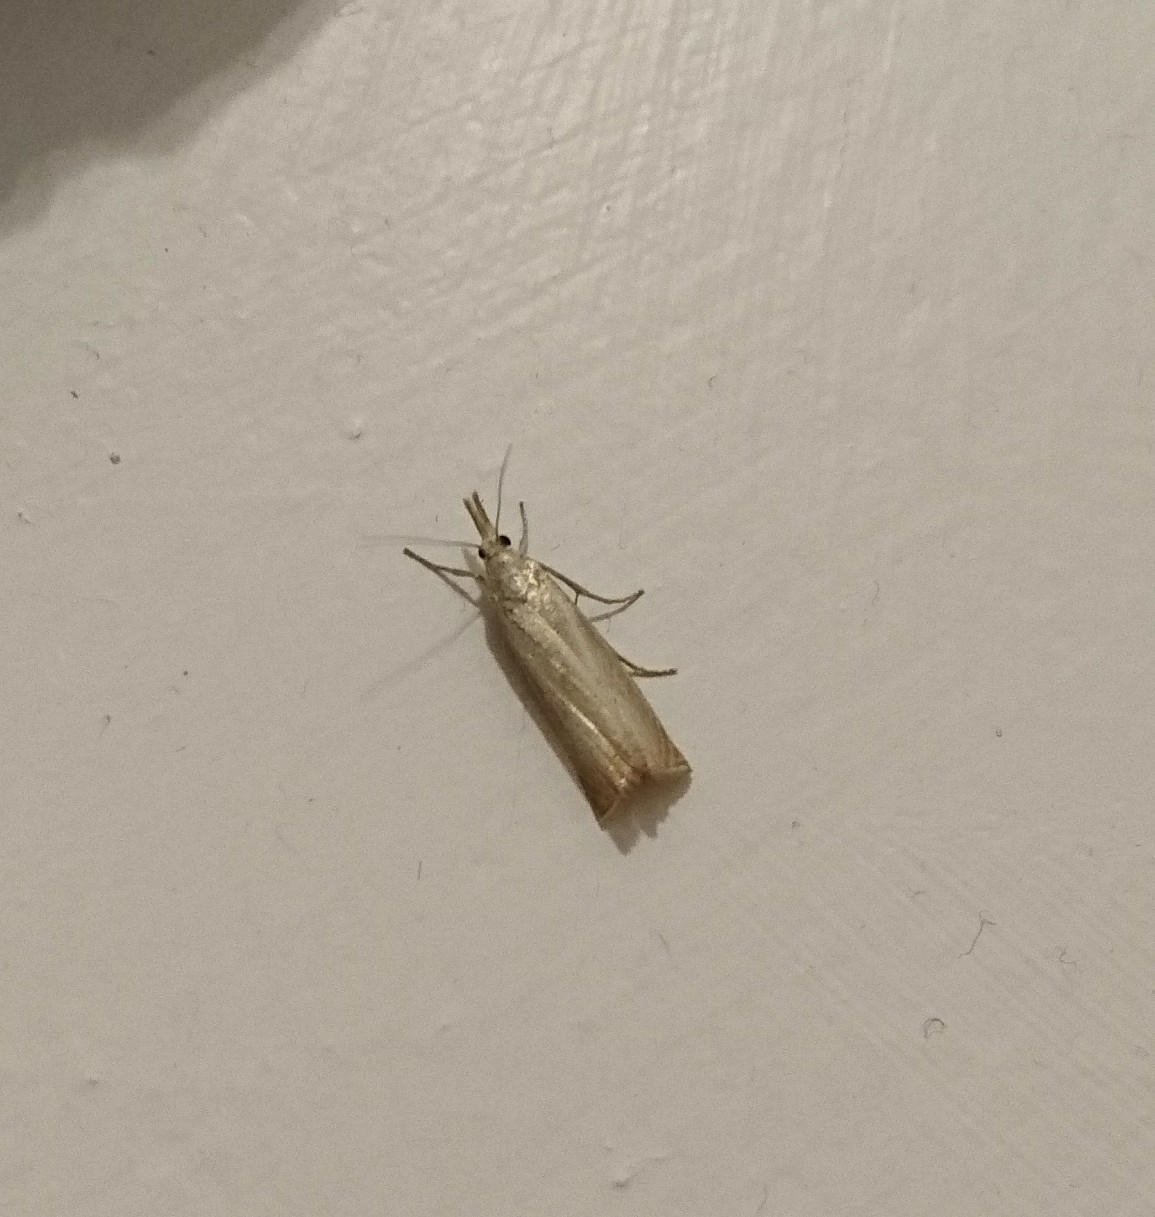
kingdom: Animalia
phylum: Arthropoda
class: Insecta
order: Lepidoptera
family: Crambidae
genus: Chrysoteuchia
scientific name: Chrysoteuchia culmella
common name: Garden grass-veneer
